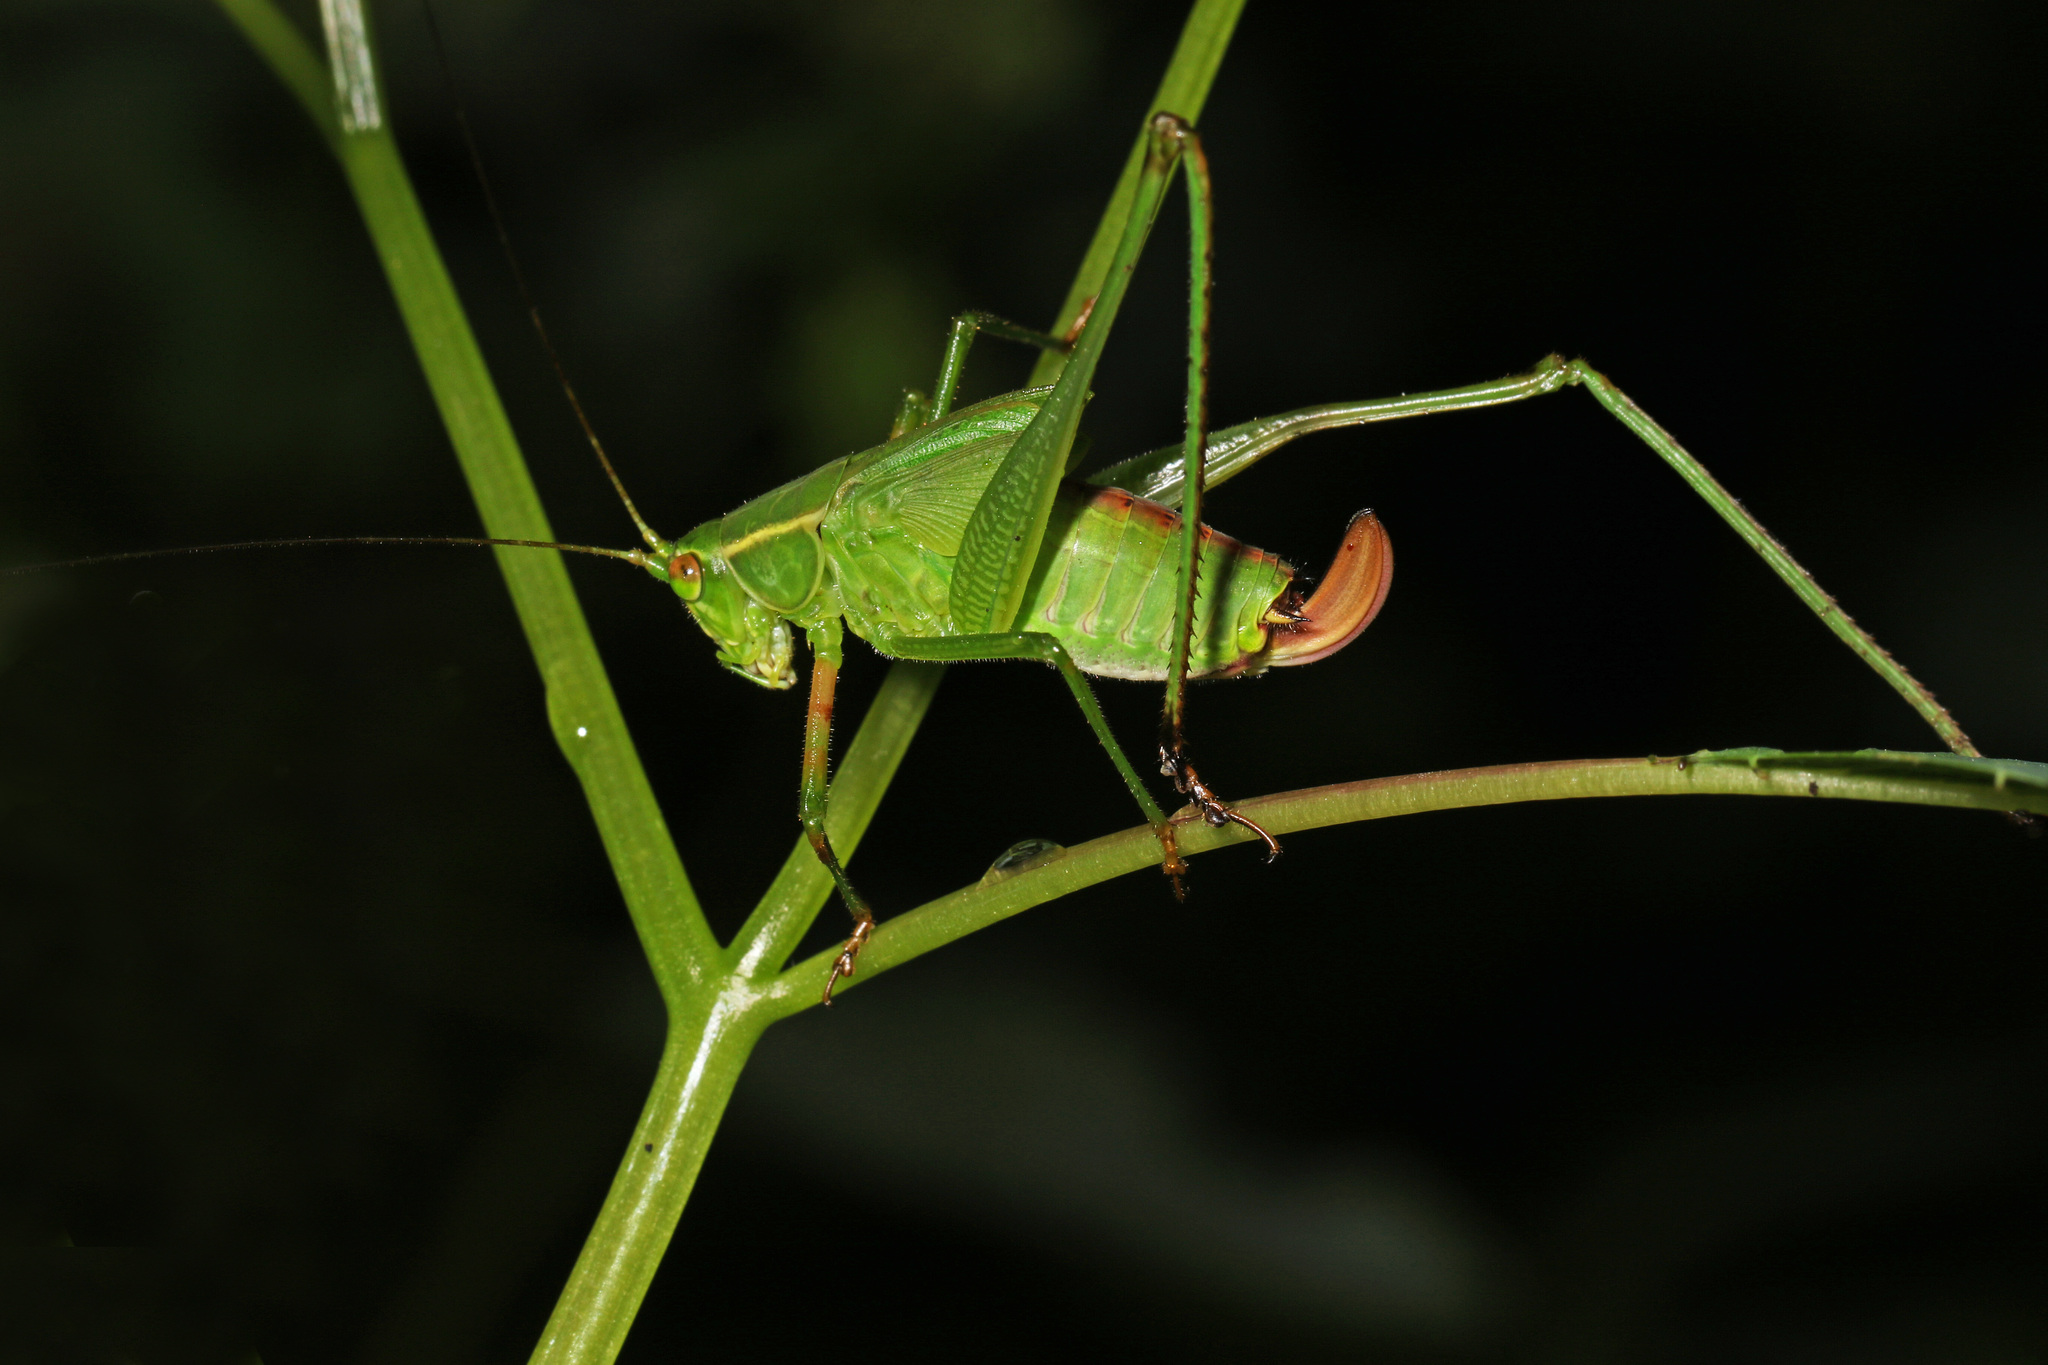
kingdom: Animalia
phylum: Arthropoda
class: Insecta
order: Orthoptera
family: Tettigoniidae
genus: Scudderia
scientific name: Scudderia furcata
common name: Fork-tailed bush katydid
